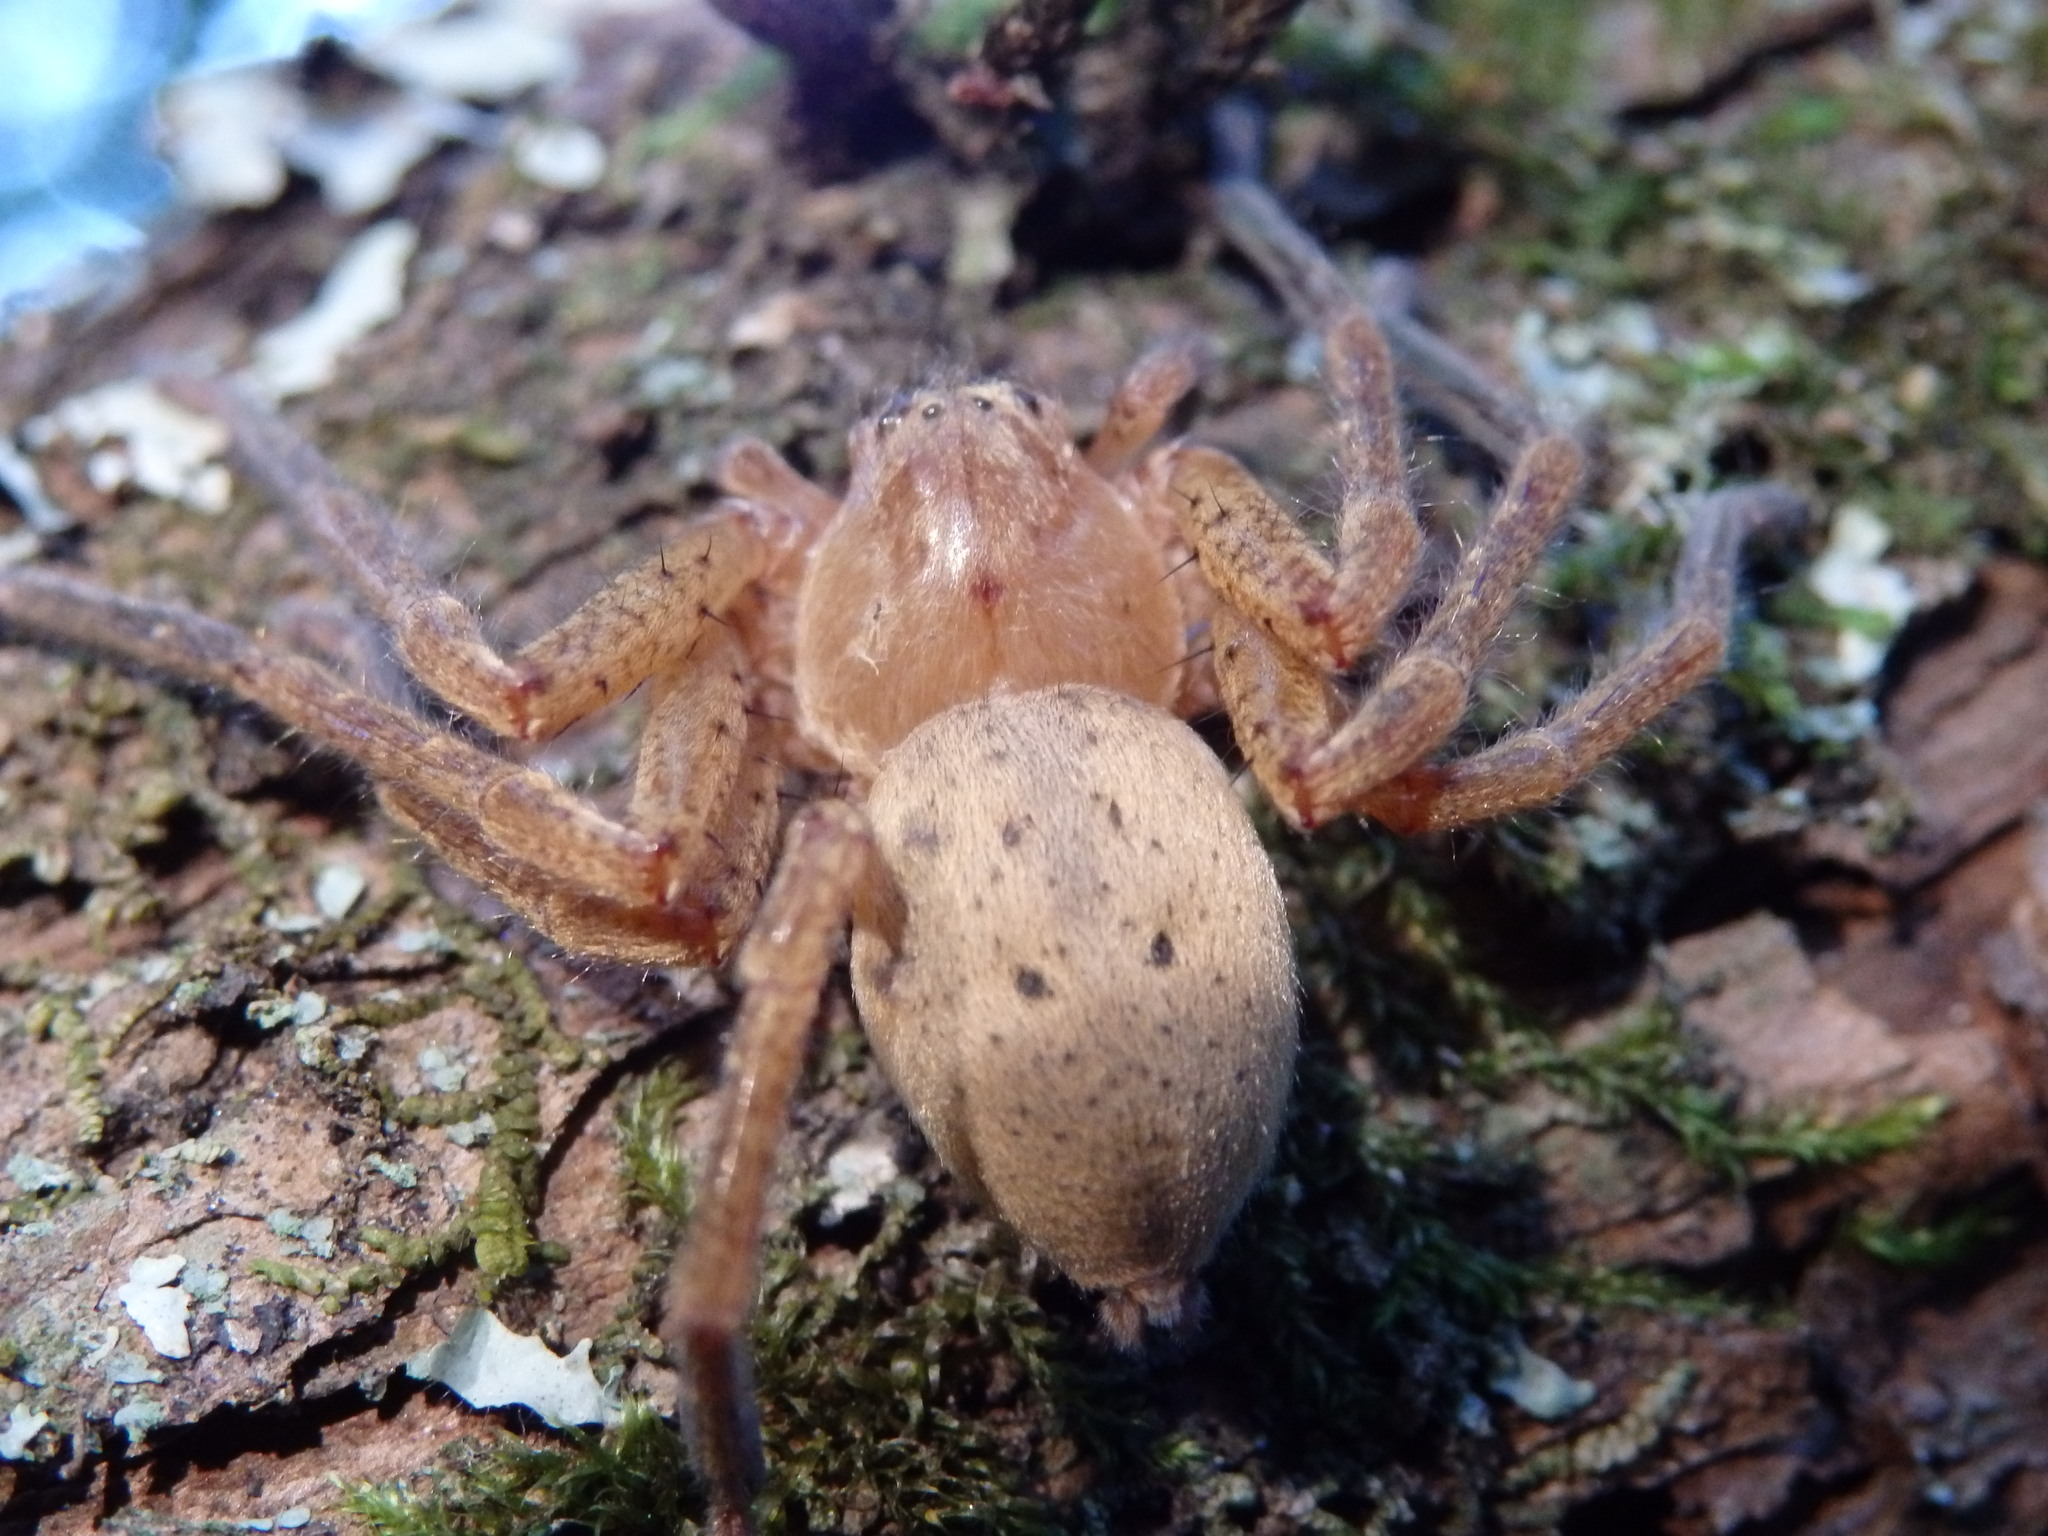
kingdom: Animalia
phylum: Arthropoda
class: Arachnida
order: Araneae
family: Sparassidae
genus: Olios
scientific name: Olios argelasius
